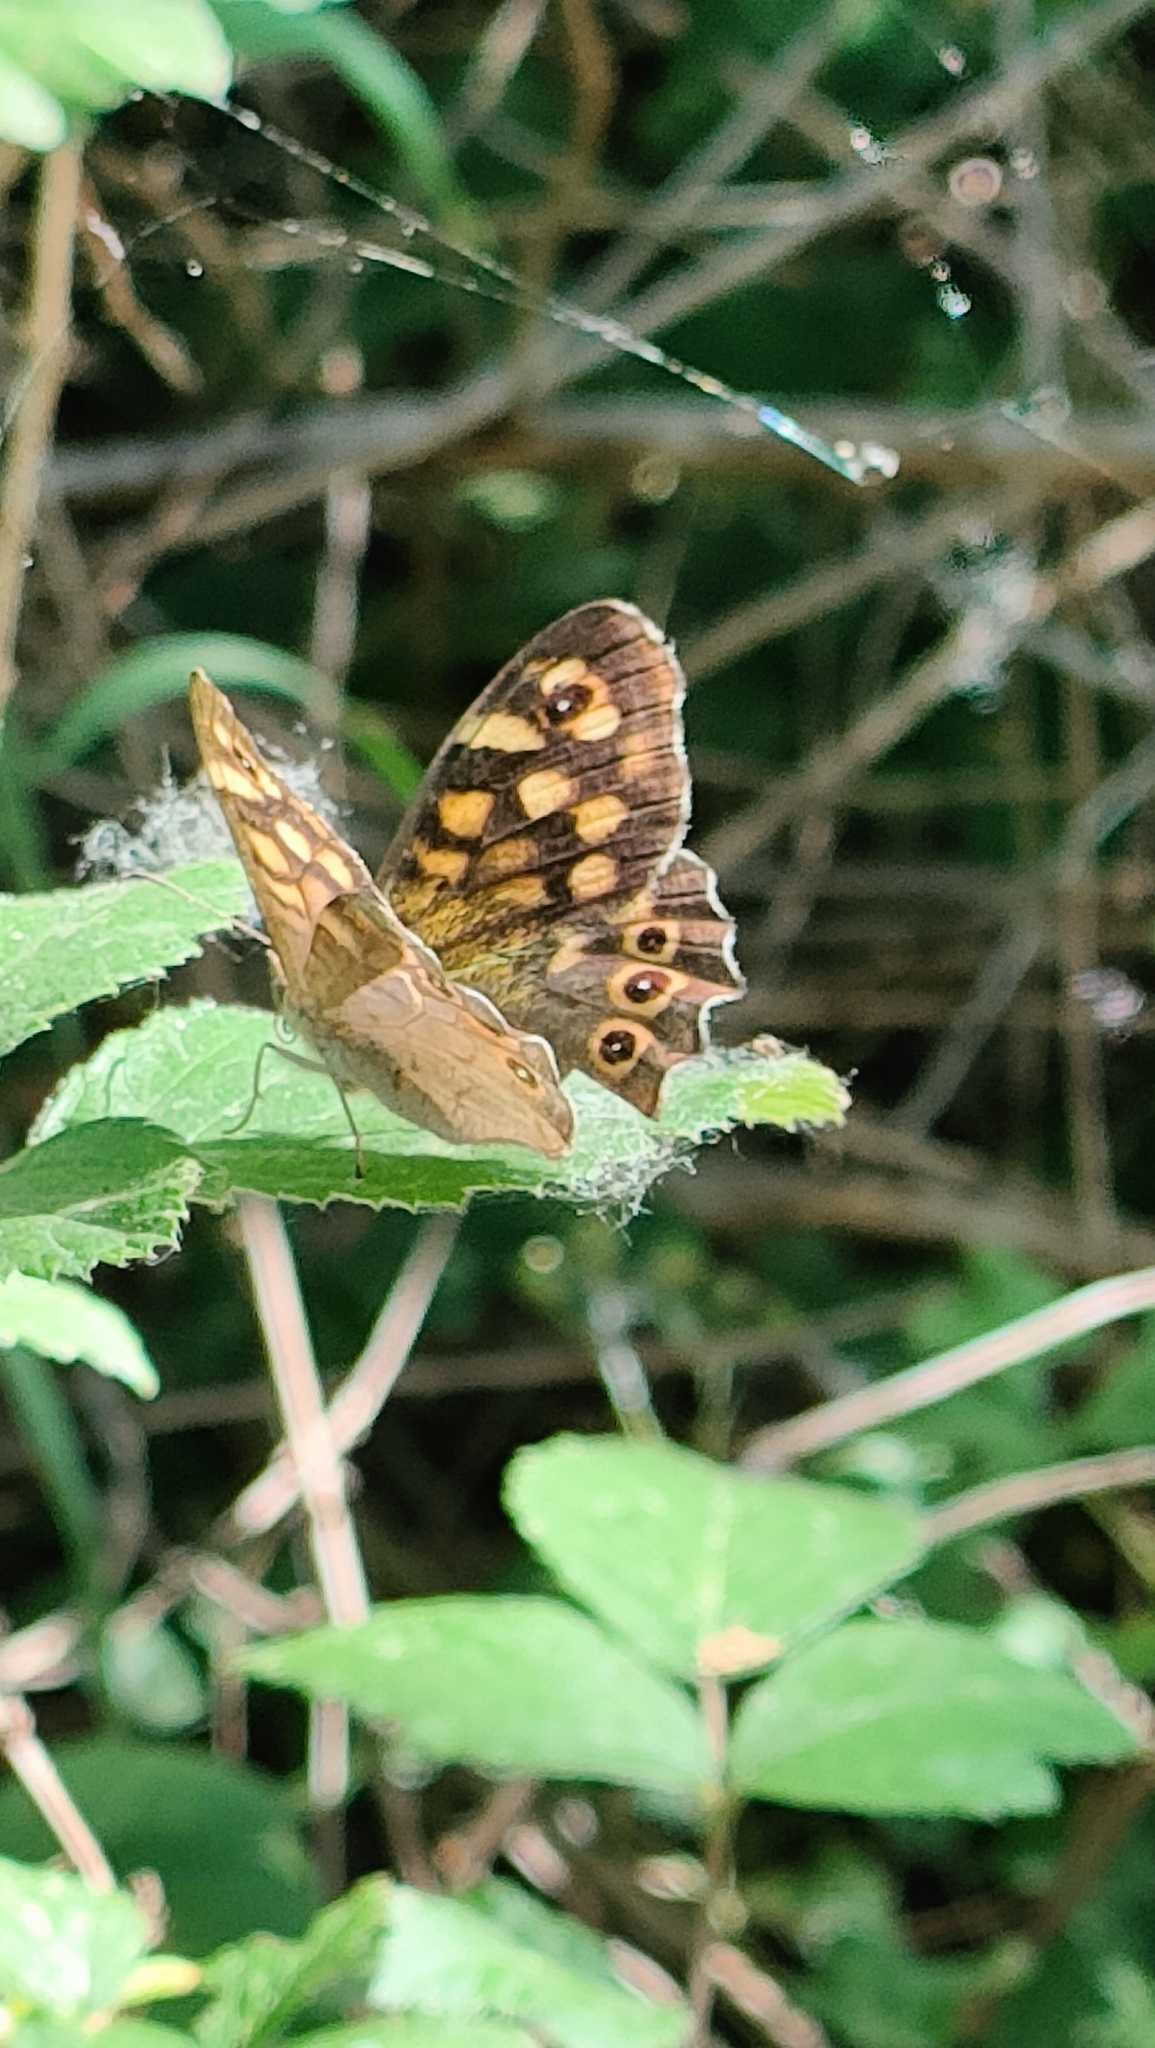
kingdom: Animalia
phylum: Arthropoda
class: Insecta
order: Lepidoptera
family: Nymphalidae
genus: Pararge
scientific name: Pararge aegeria
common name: Speckled wood
